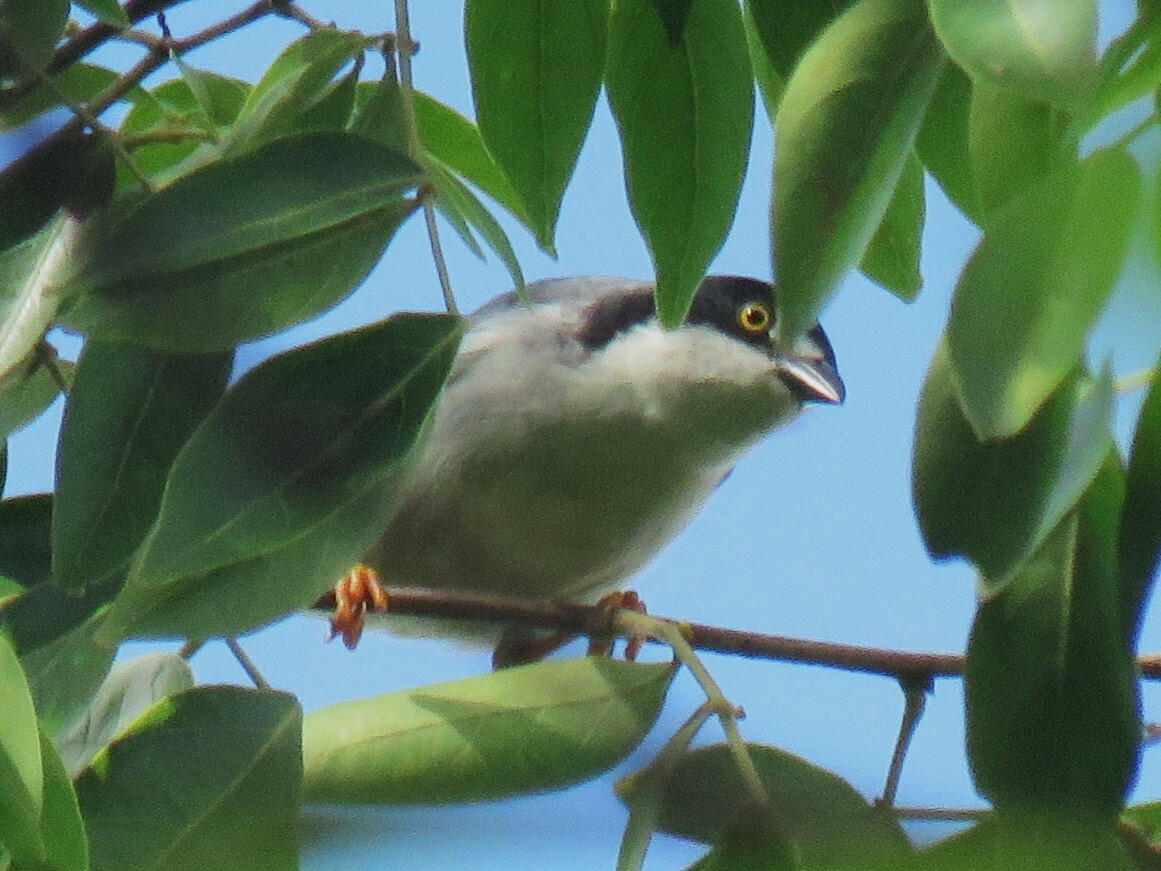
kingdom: Animalia
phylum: Chordata
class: Aves
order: Passeriformes
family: Thraupidae
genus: Nemosia
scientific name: Nemosia pileata
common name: Hooded tanager
